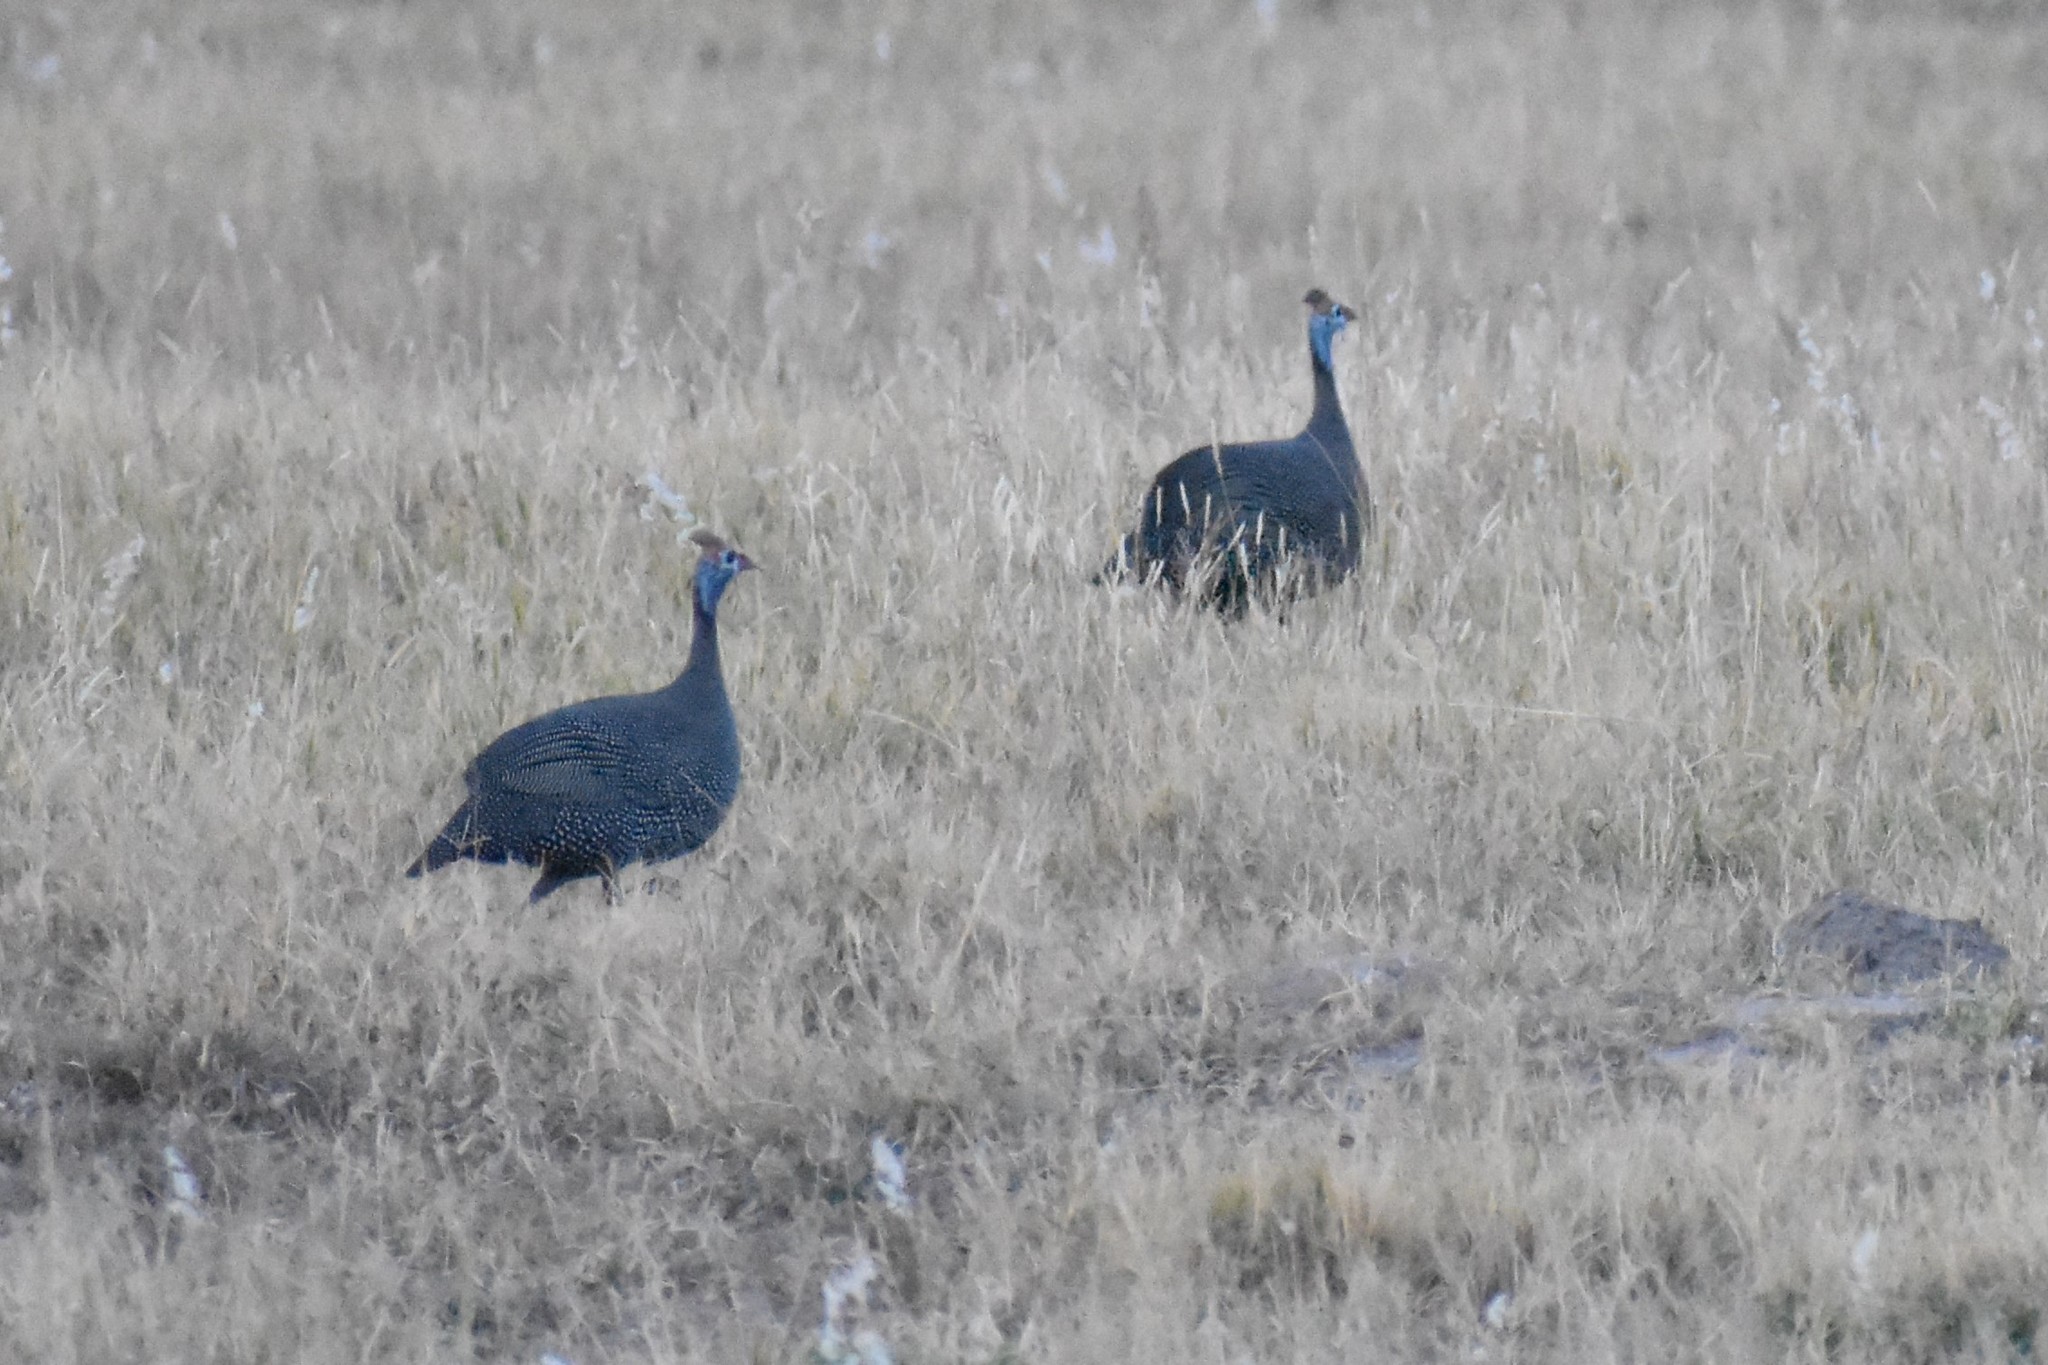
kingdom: Animalia
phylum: Chordata
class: Aves
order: Galliformes
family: Numididae
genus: Numida
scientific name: Numida meleagris
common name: Helmeted guineafowl
